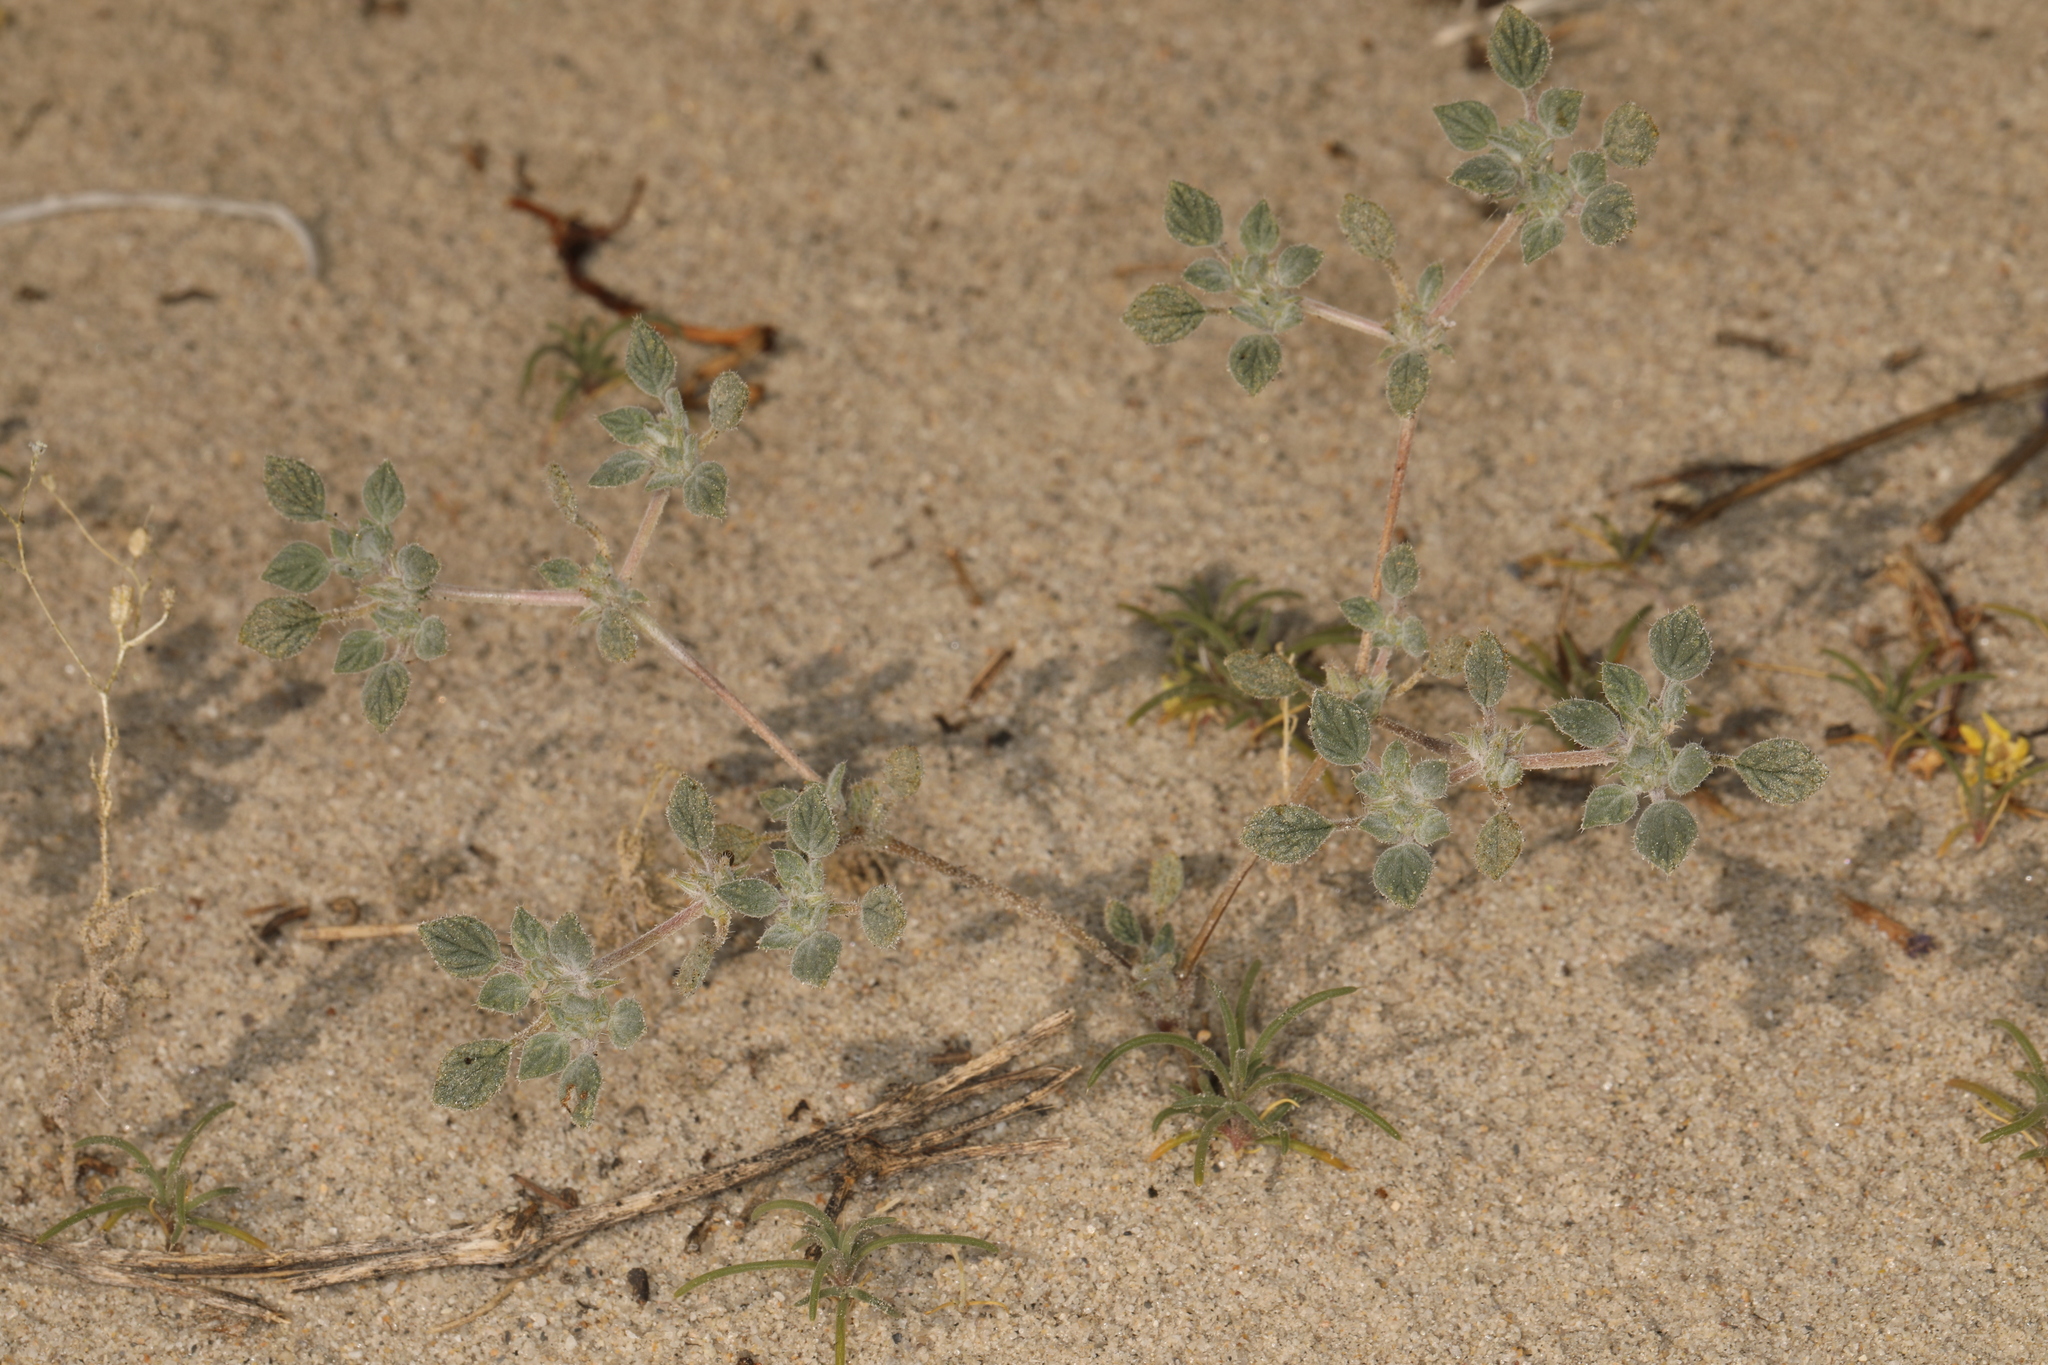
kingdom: Plantae
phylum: Tracheophyta
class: Magnoliopsida
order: Boraginales
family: Ehretiaceae
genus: Tiquilia
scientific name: Tiquilia nuttallii
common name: Rosette tiquilia
